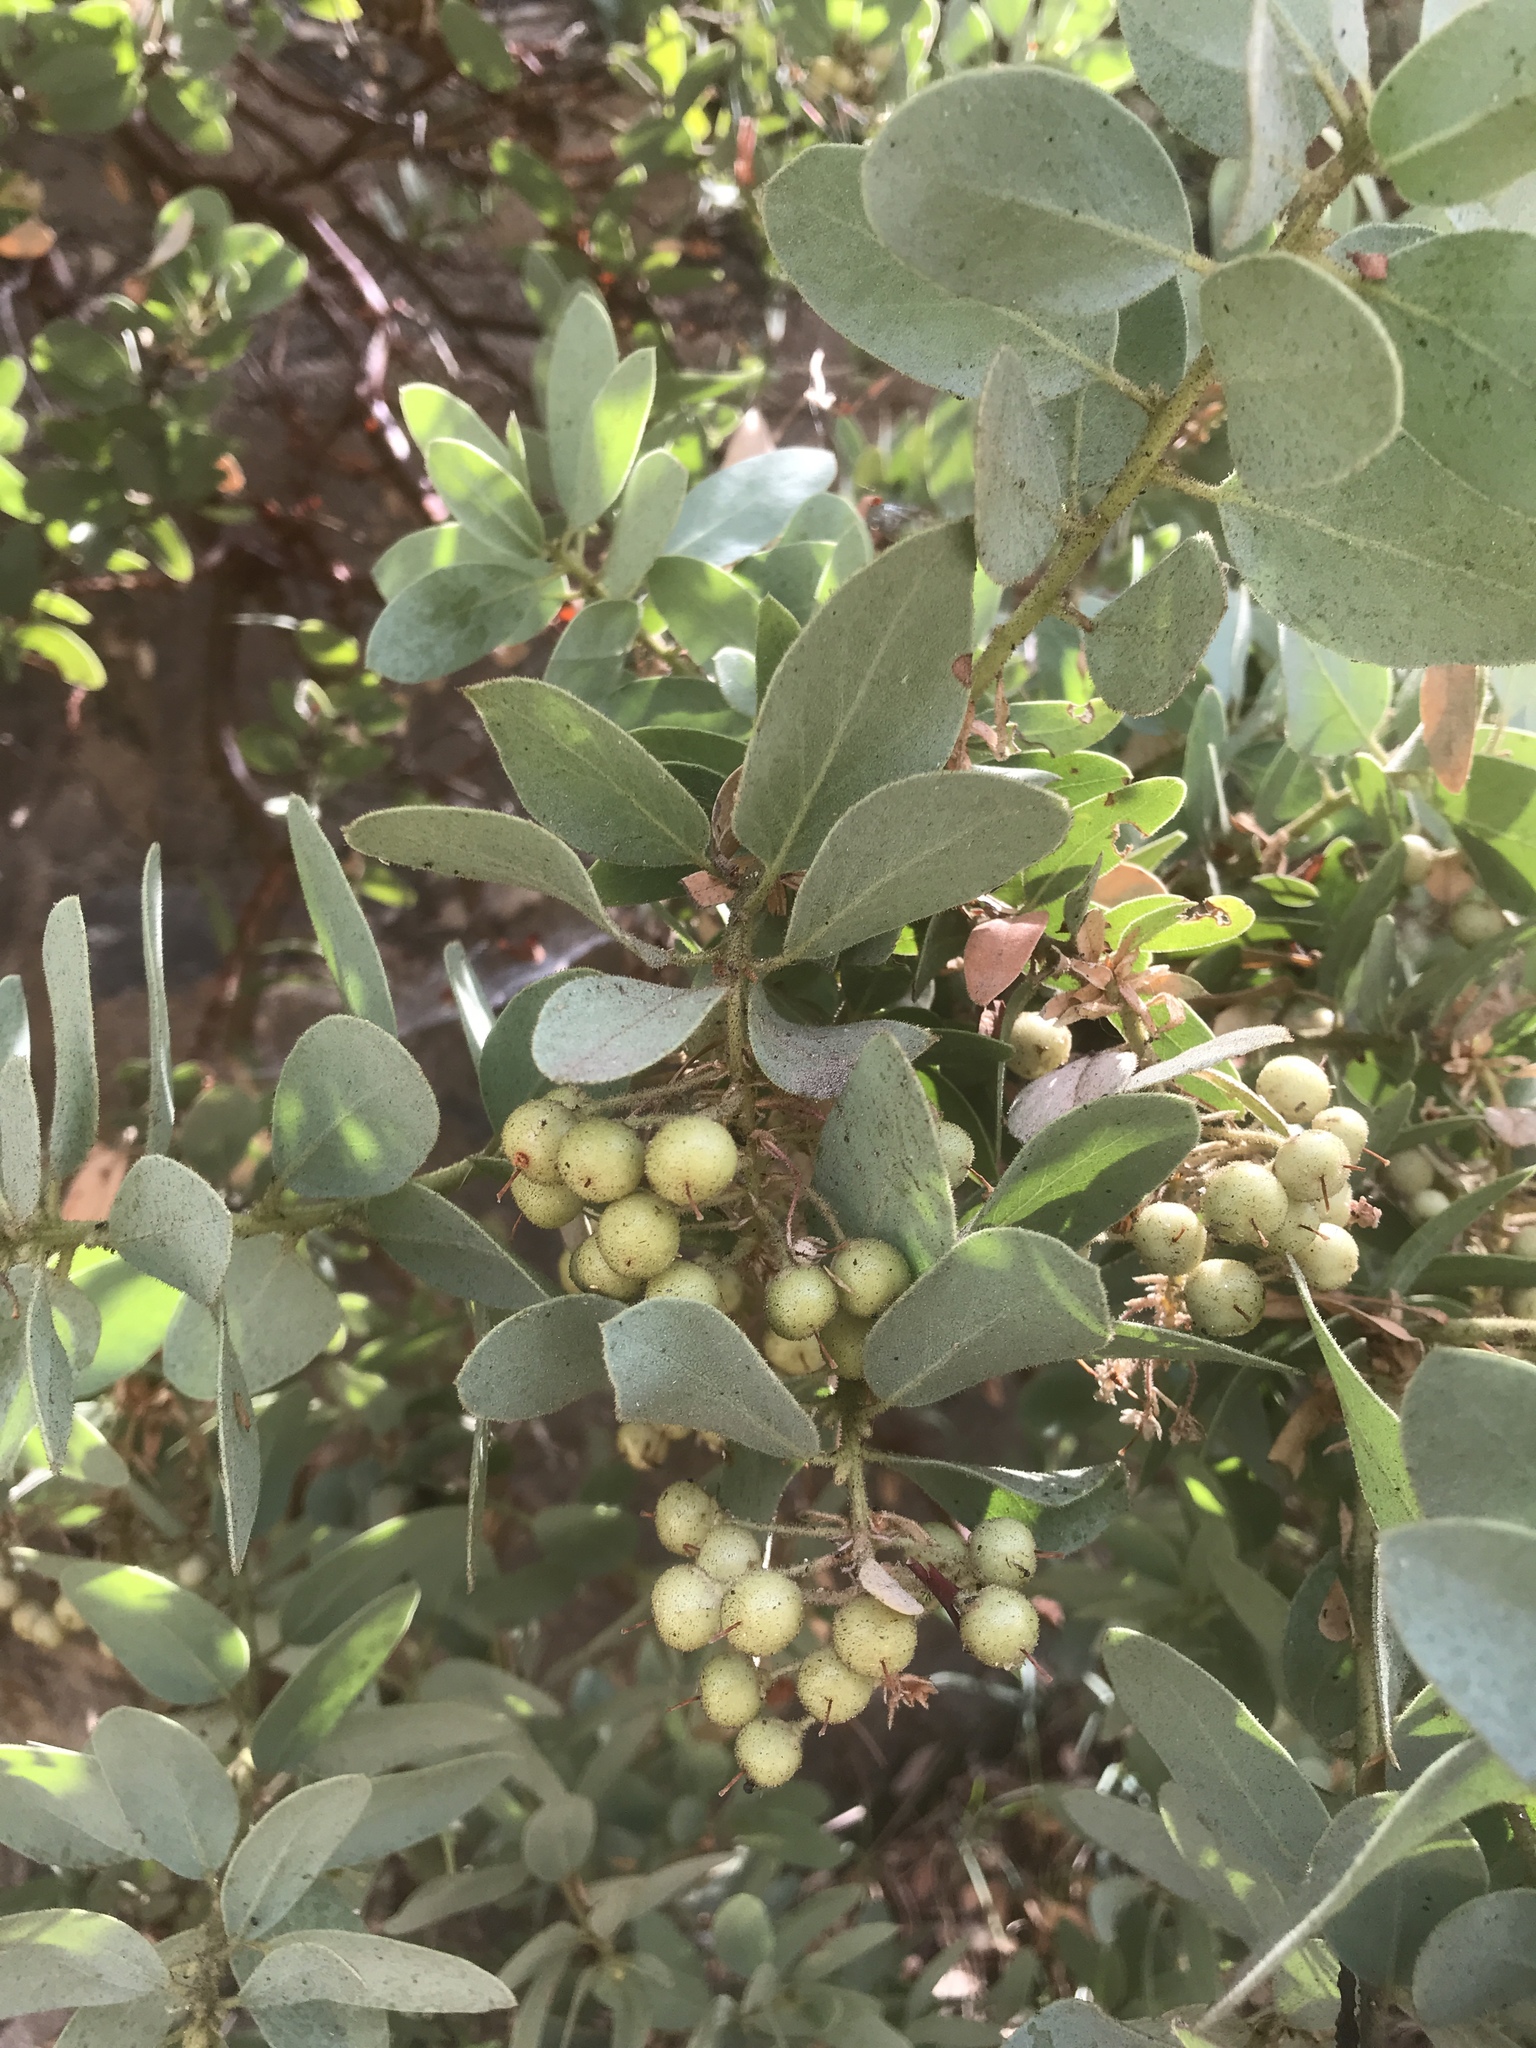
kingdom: Plantae
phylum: Tracheophyta
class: Magnoliopsida
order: Ericales
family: Ericaceae
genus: Arctostaphylos
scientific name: Arctostaphylos pringlei
